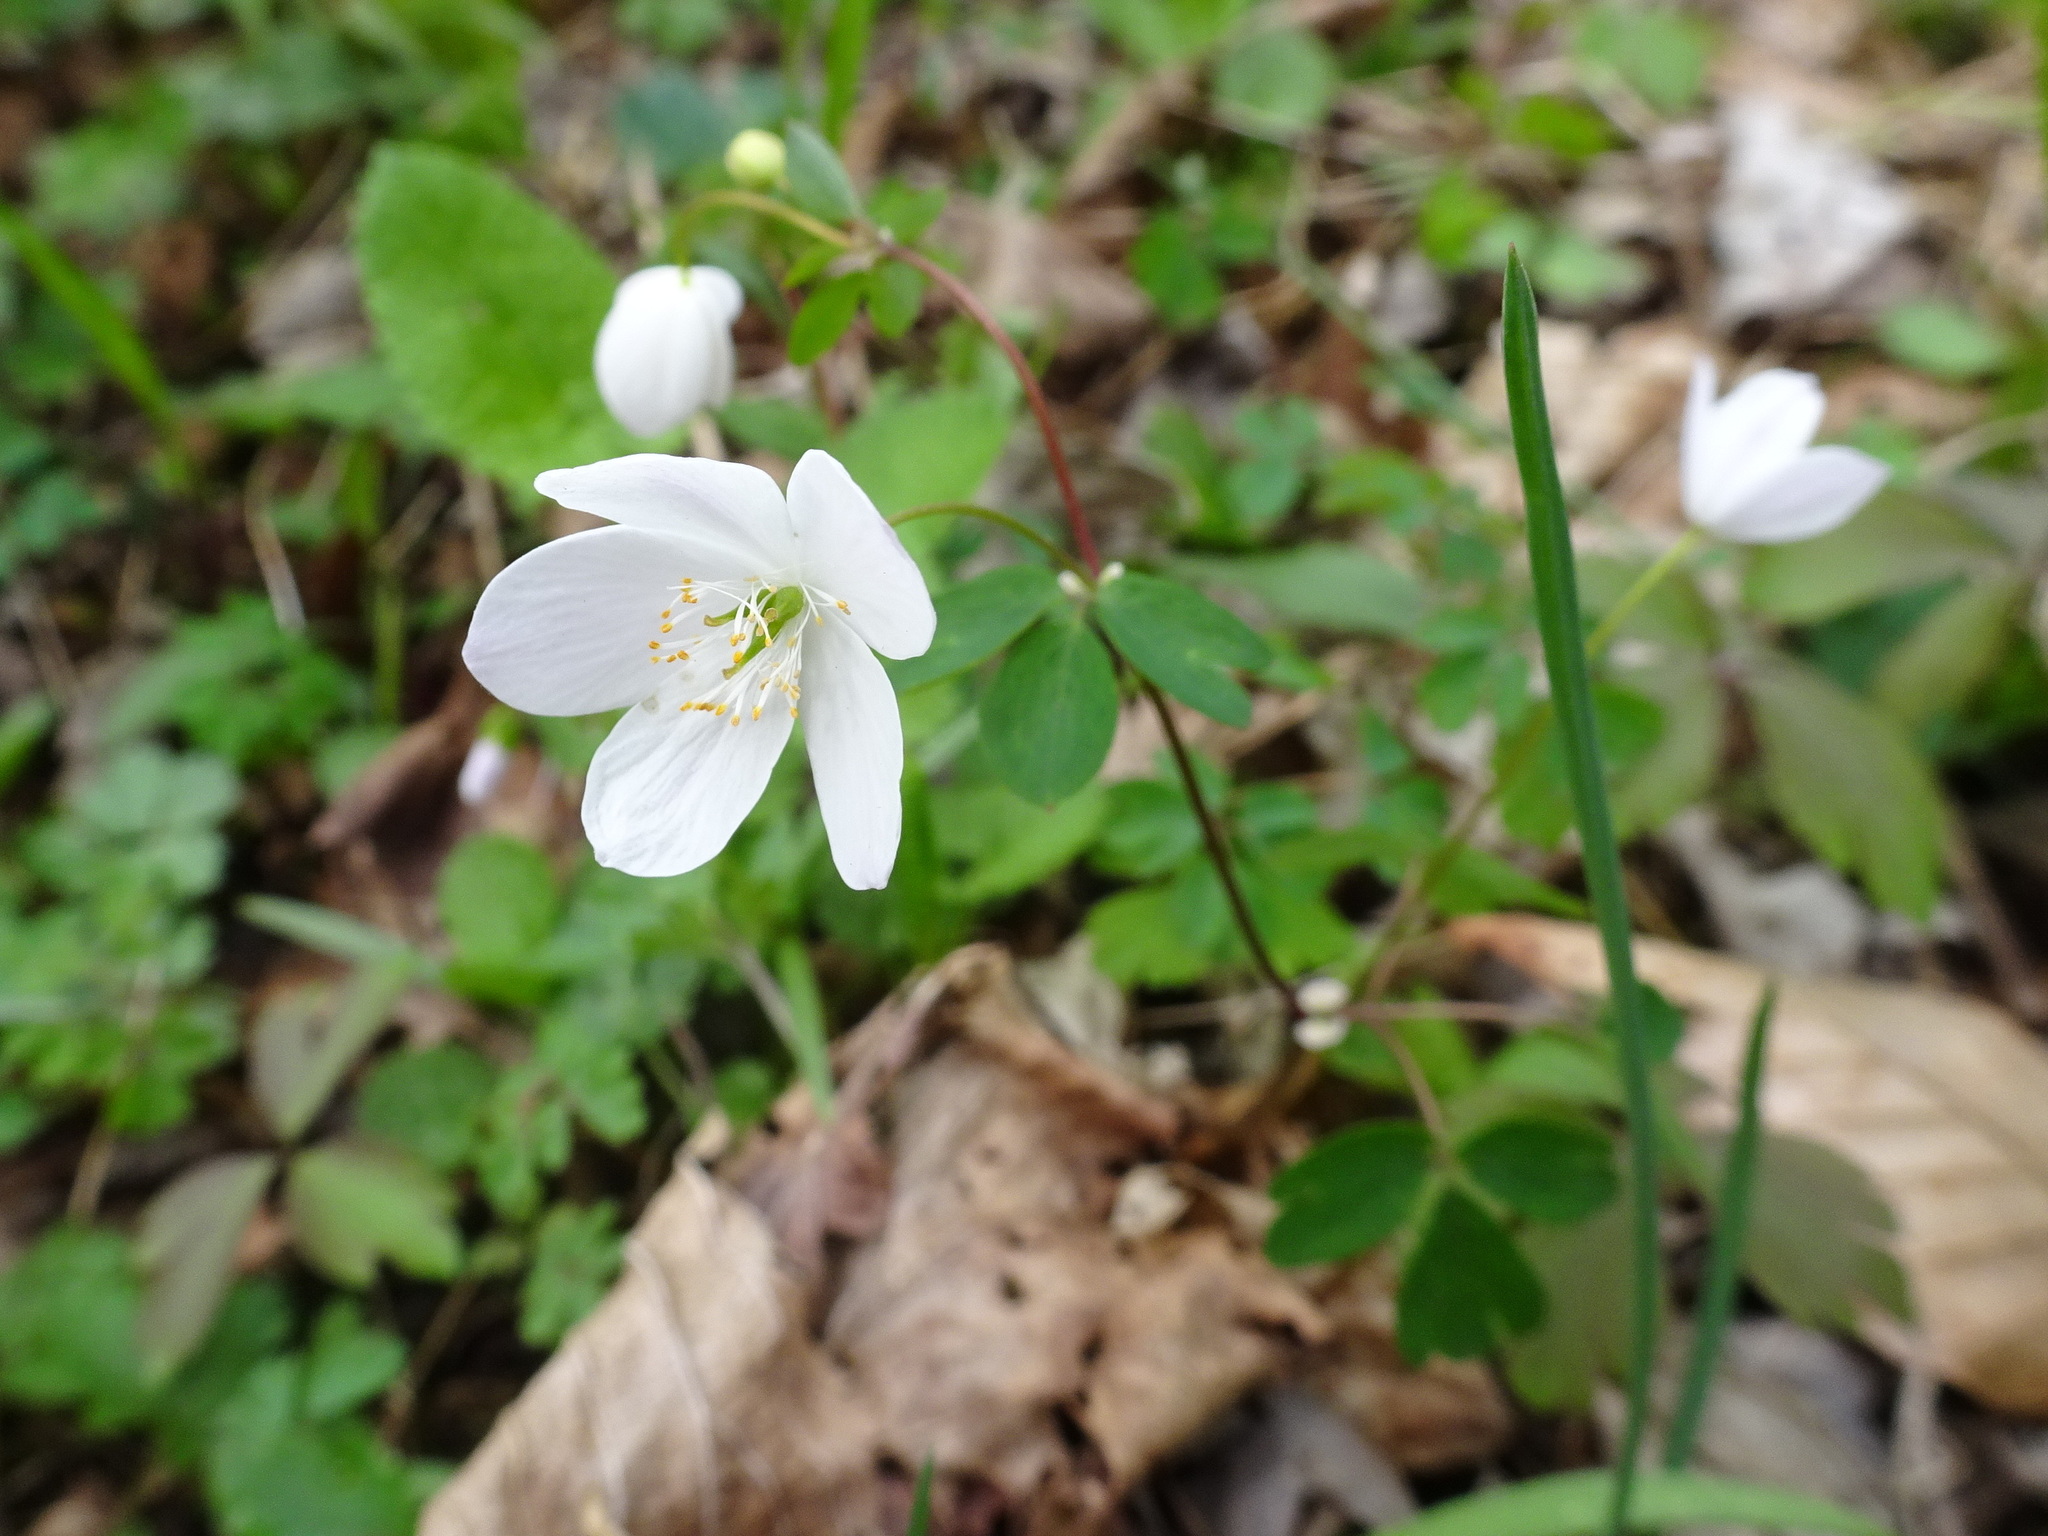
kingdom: Plantae
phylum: Tracheophyta
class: Magnoliopsida
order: Ranunculales
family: Ranunculaceae
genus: Enemion
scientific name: Enemion biternatum
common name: Eastern false rue-anemone
